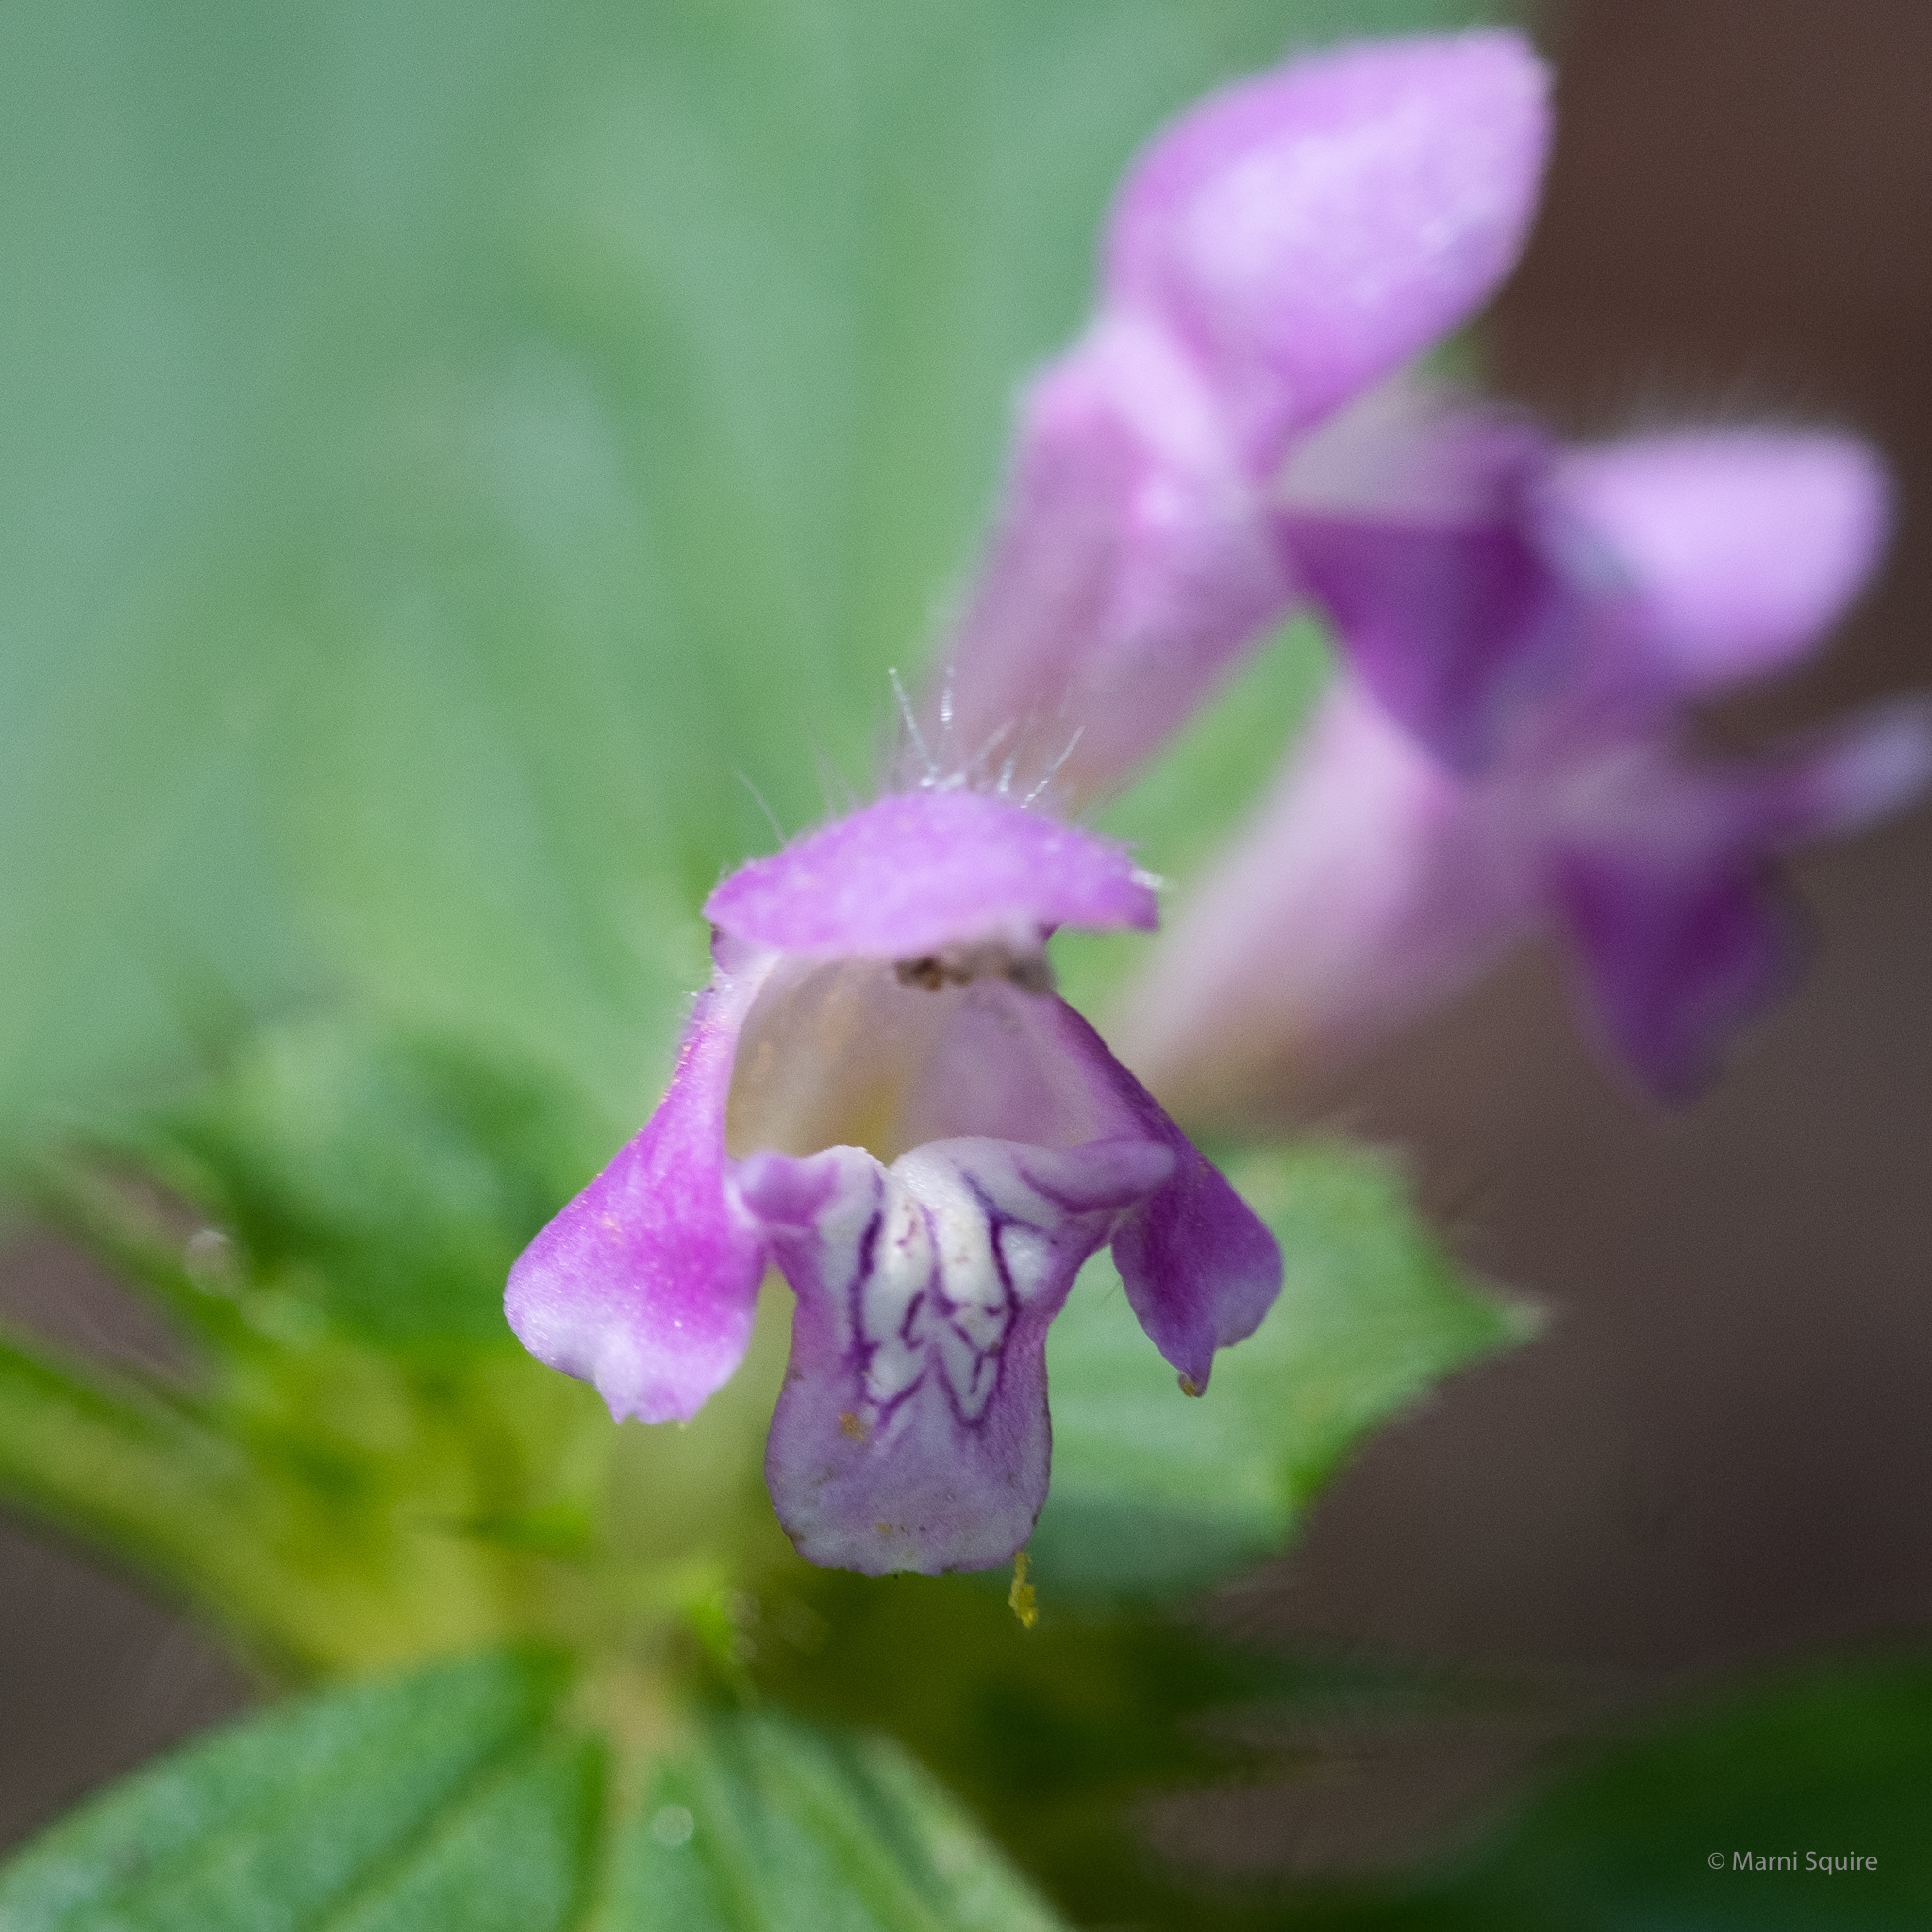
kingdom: Plantae
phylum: Tracheophyta
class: Magnoliopsida
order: Lamiales
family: Lamiaceae
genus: Galeopsis
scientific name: Galeopsis tetrahit
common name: Common hemp-nettle
